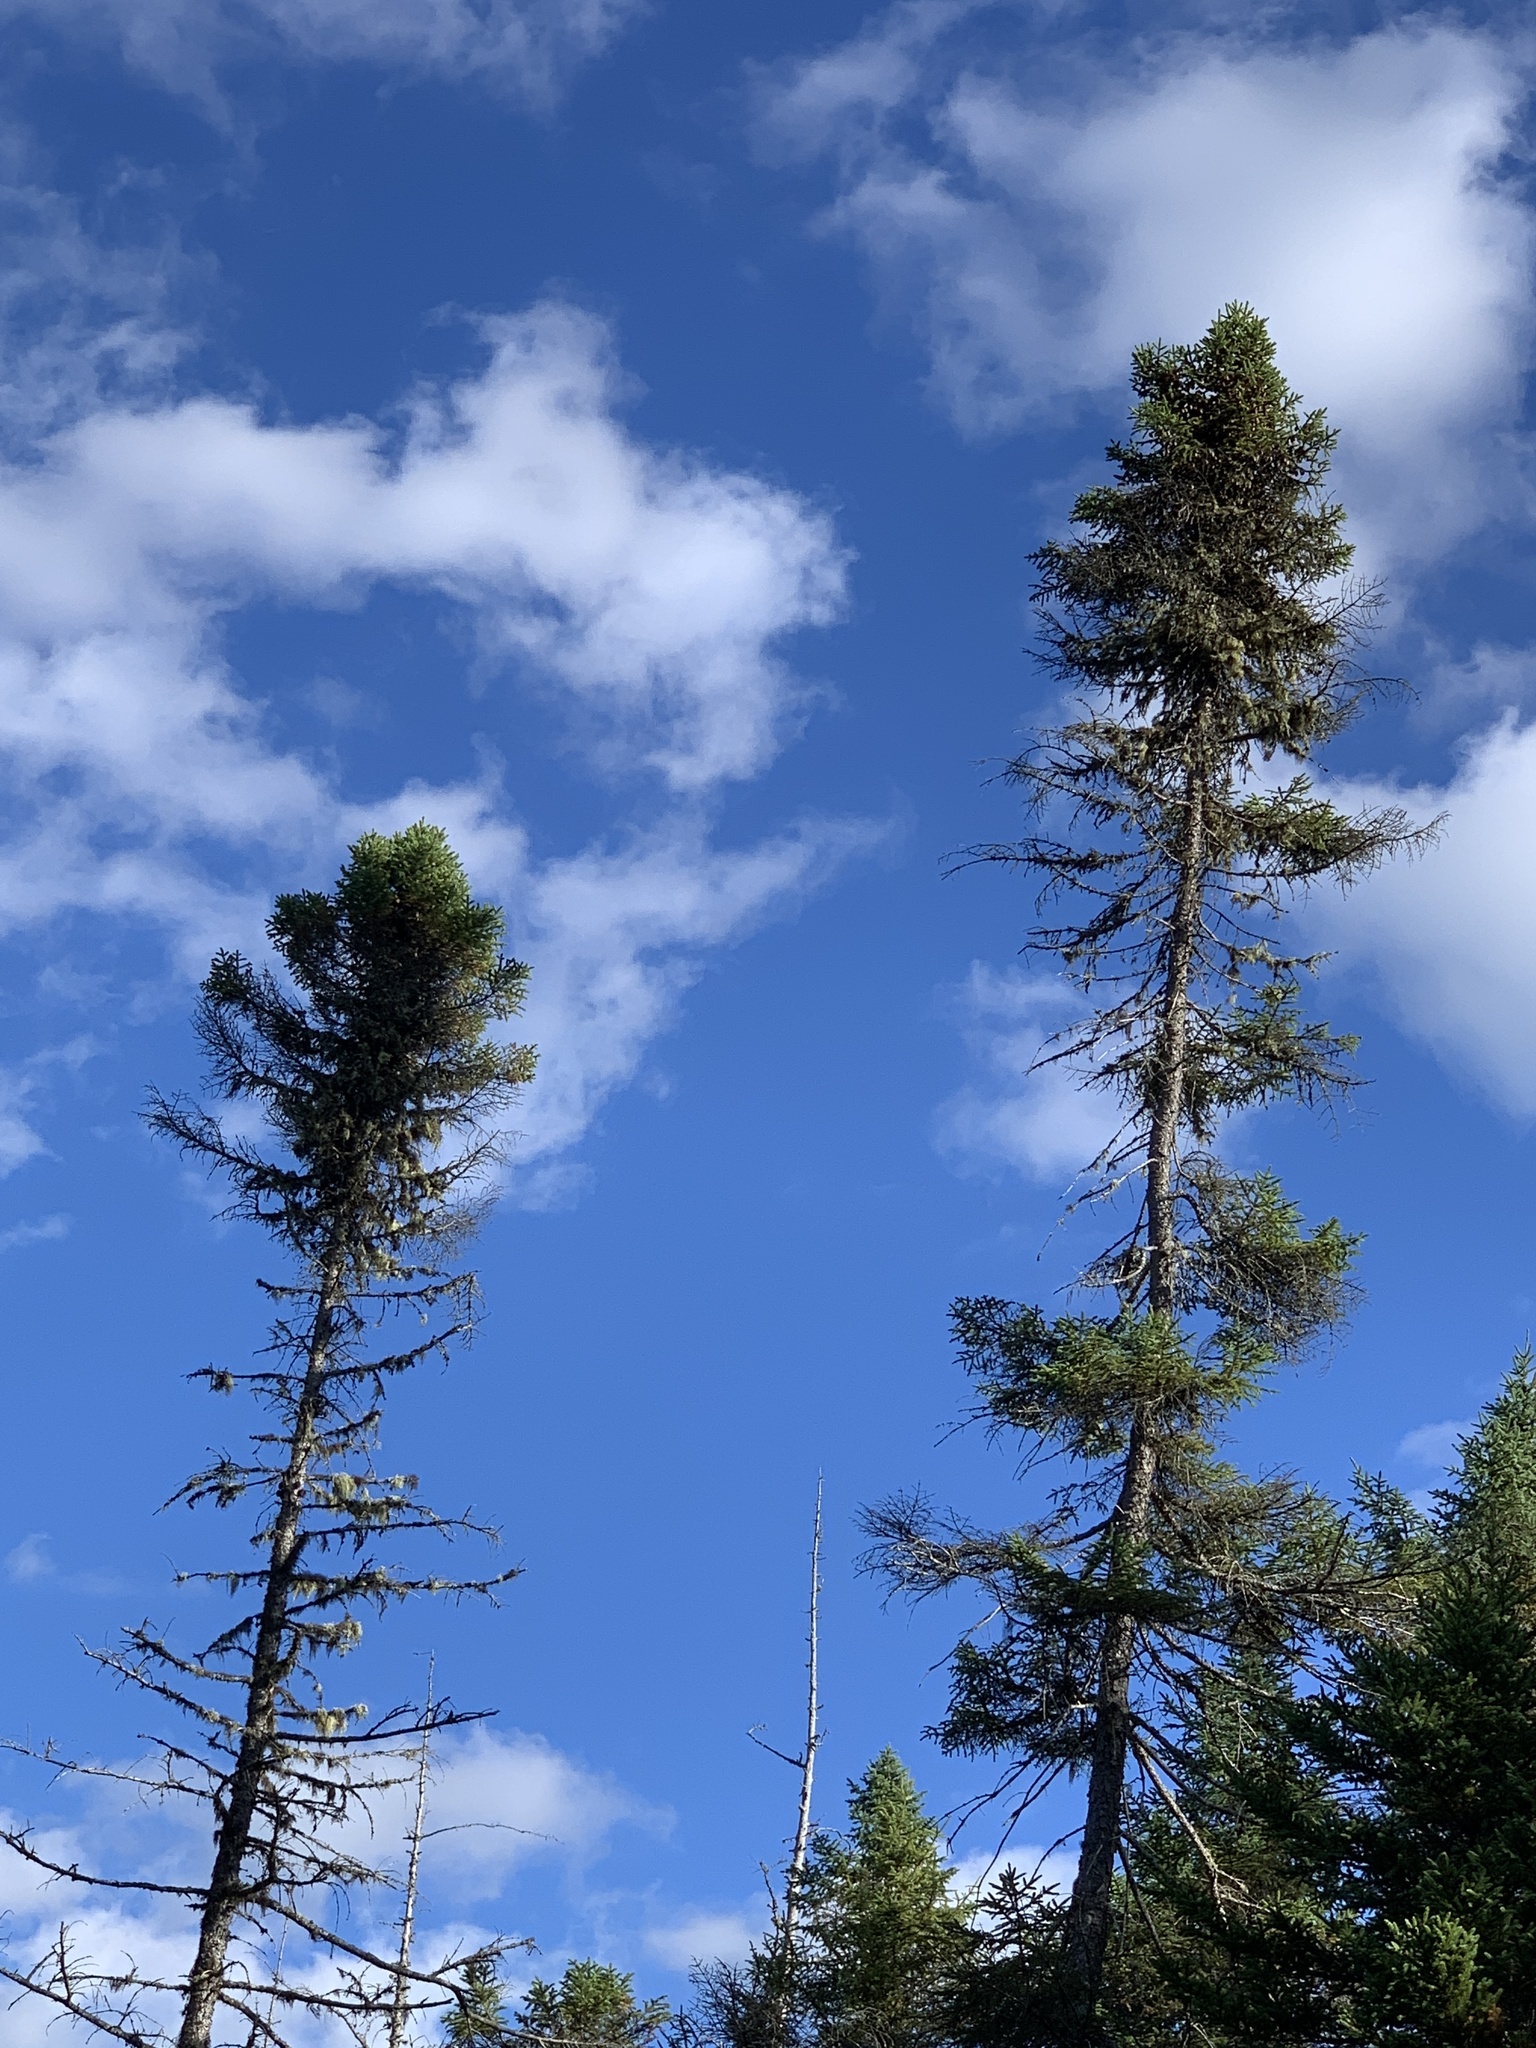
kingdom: Plantae
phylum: Tracheophyta
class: Pinopsida
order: Pinales
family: Pinaceae
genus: Picea
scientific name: Picea mariana
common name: Black spruce
